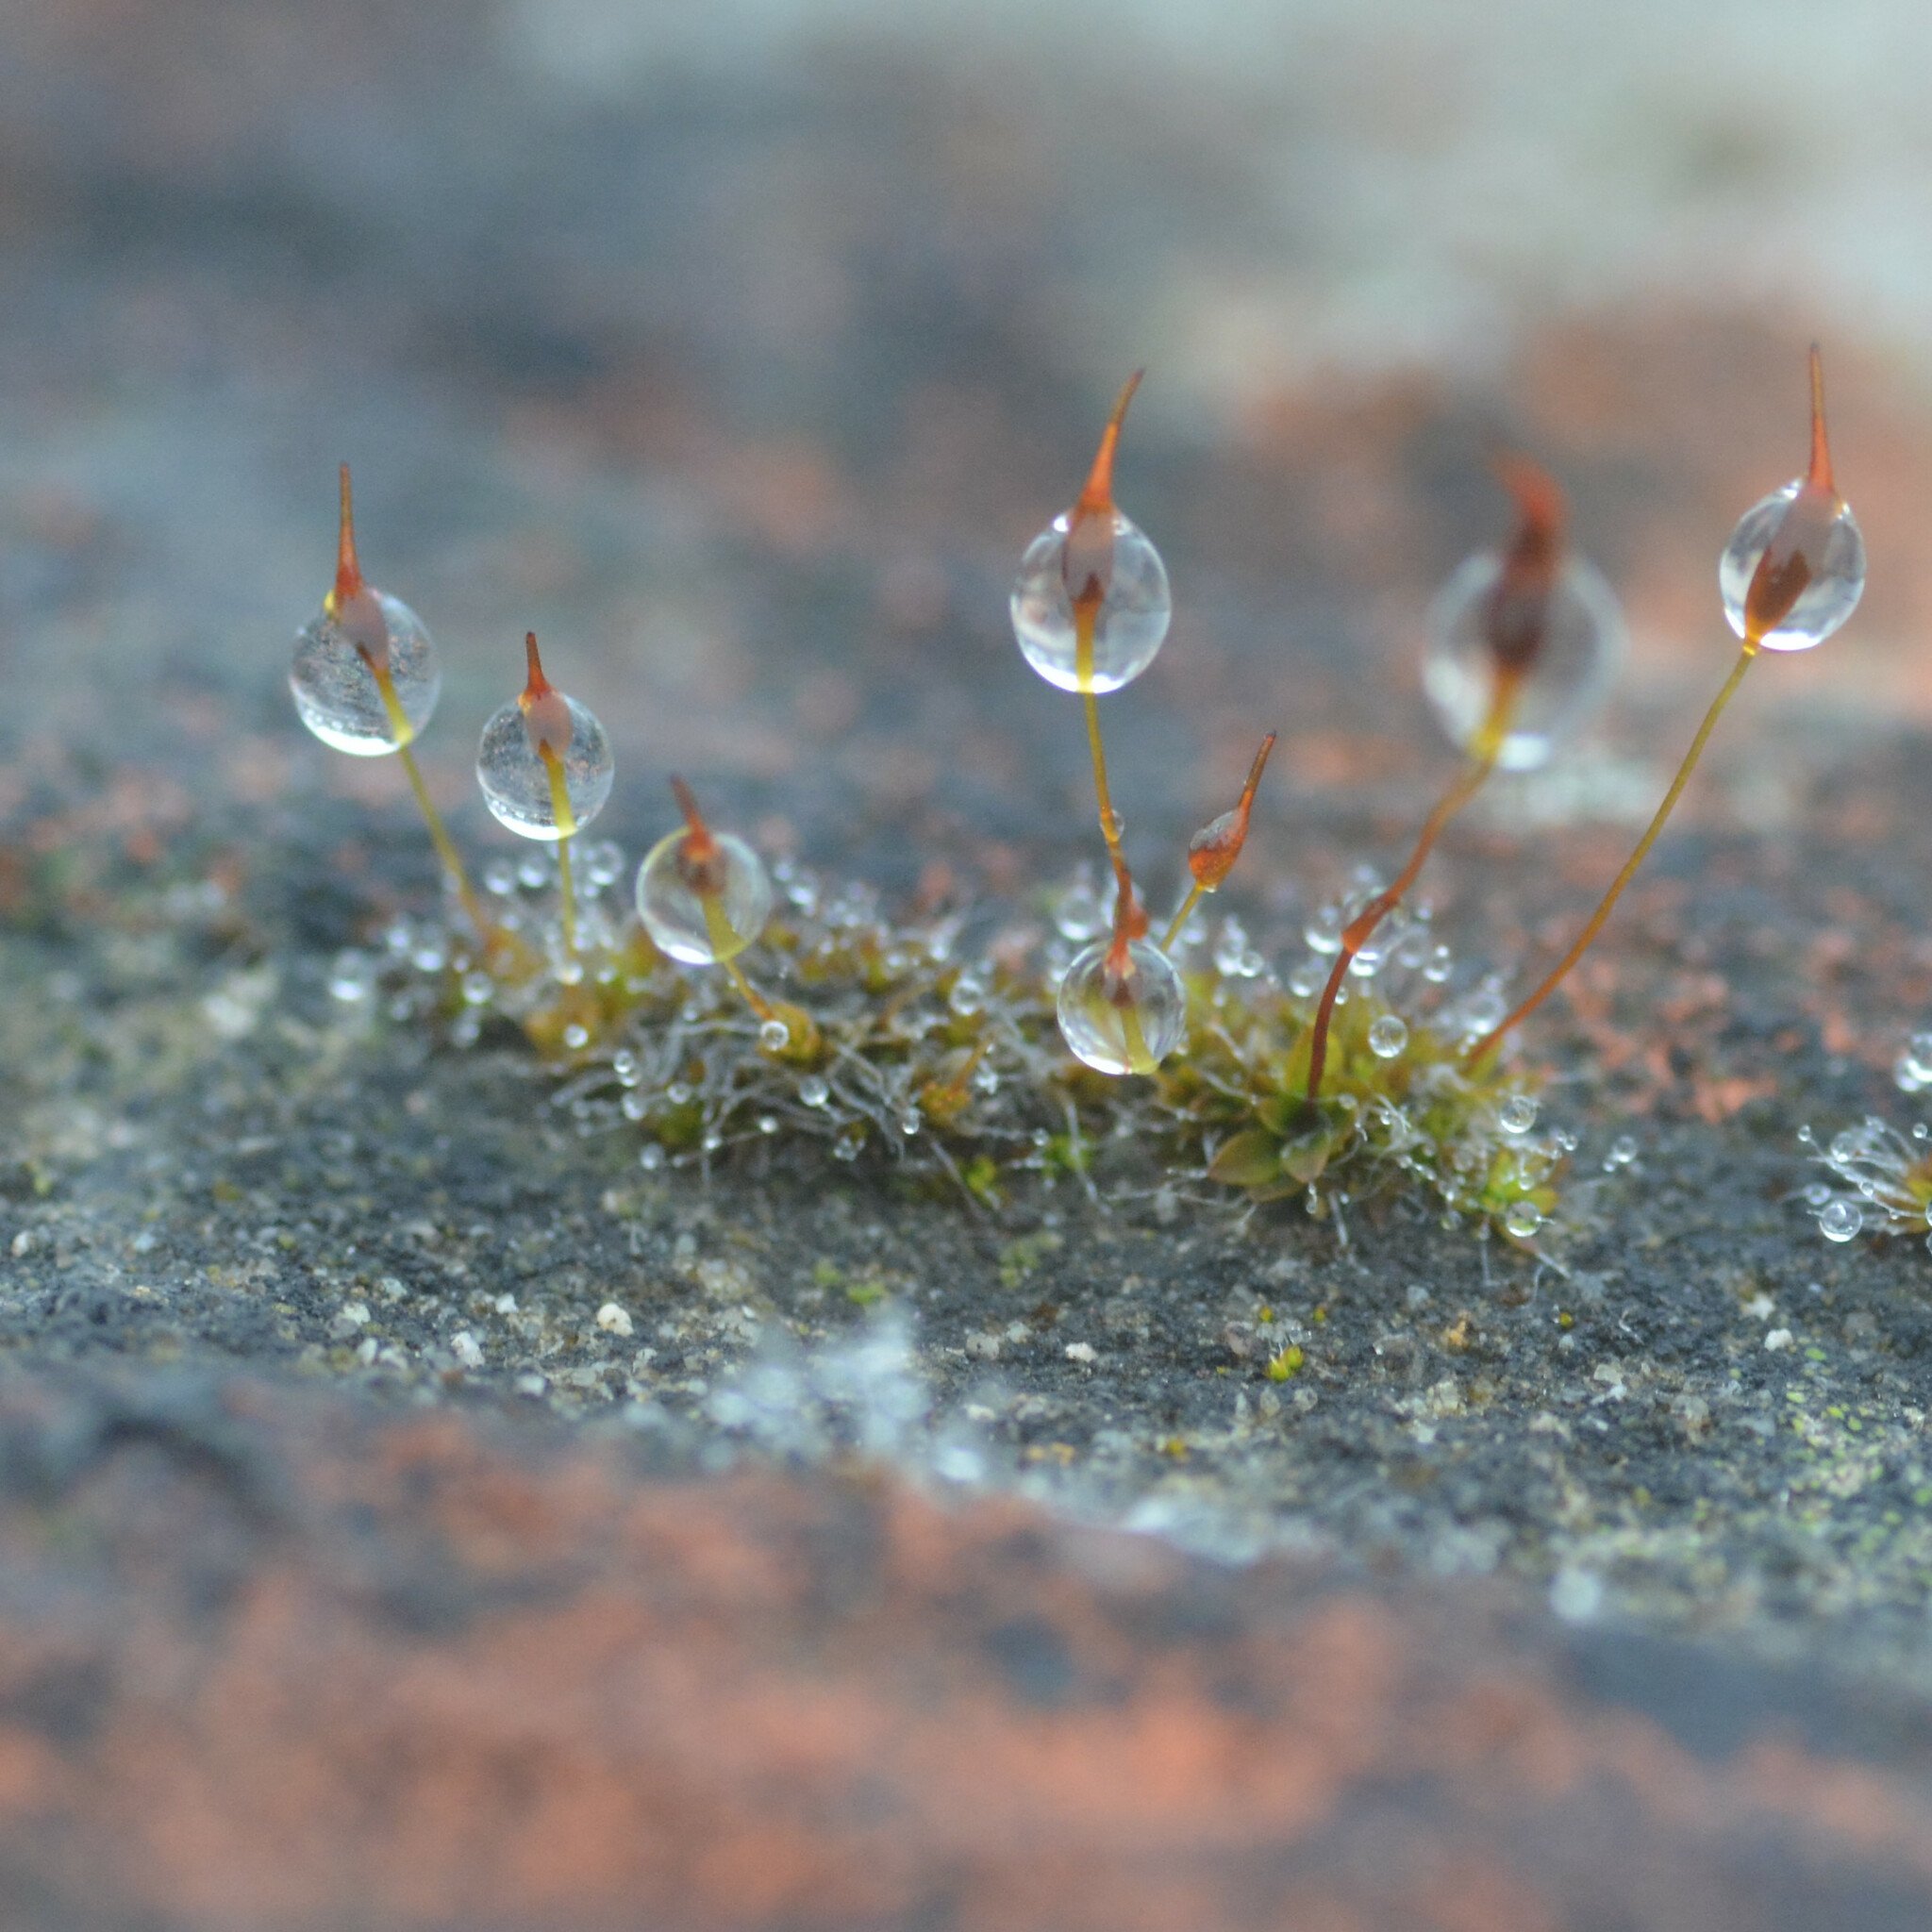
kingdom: Plantae
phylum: Bryophyta
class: Bryopsida
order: Pottiales
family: Pottiaceae
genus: Tortula
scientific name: Tortula muralis
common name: Wall screw-moss
